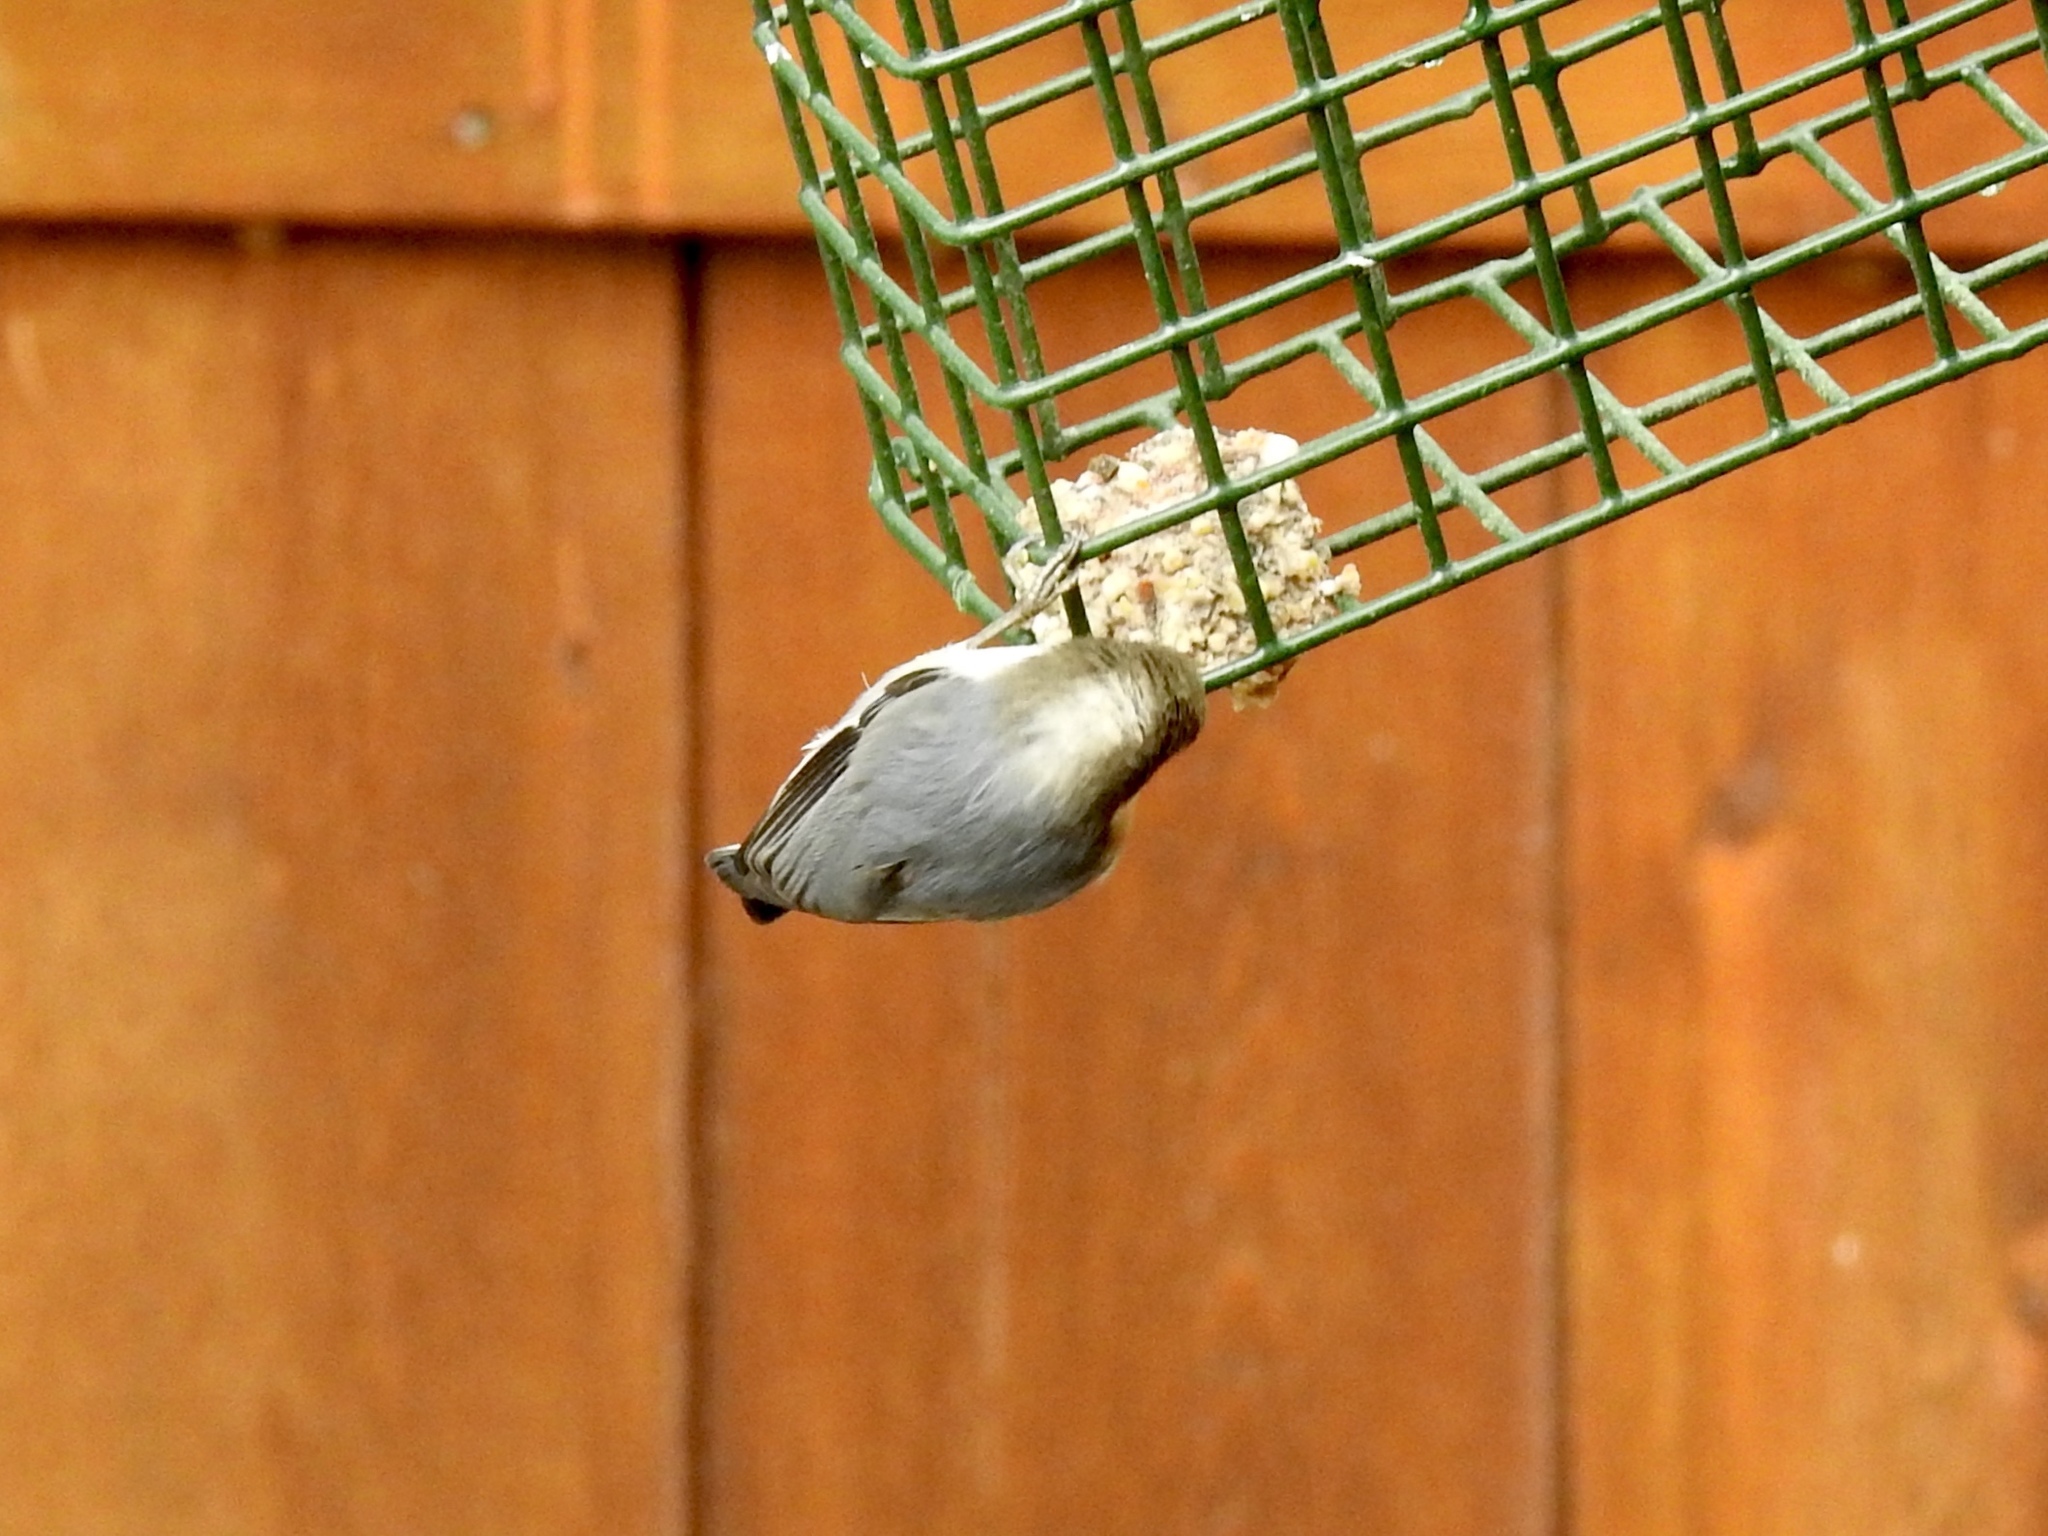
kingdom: Animalia
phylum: Chordata
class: Aves
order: Passeriformes
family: Sittidae
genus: Sitta
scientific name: Sitta pygmaea
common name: Pygmy nuthatch
